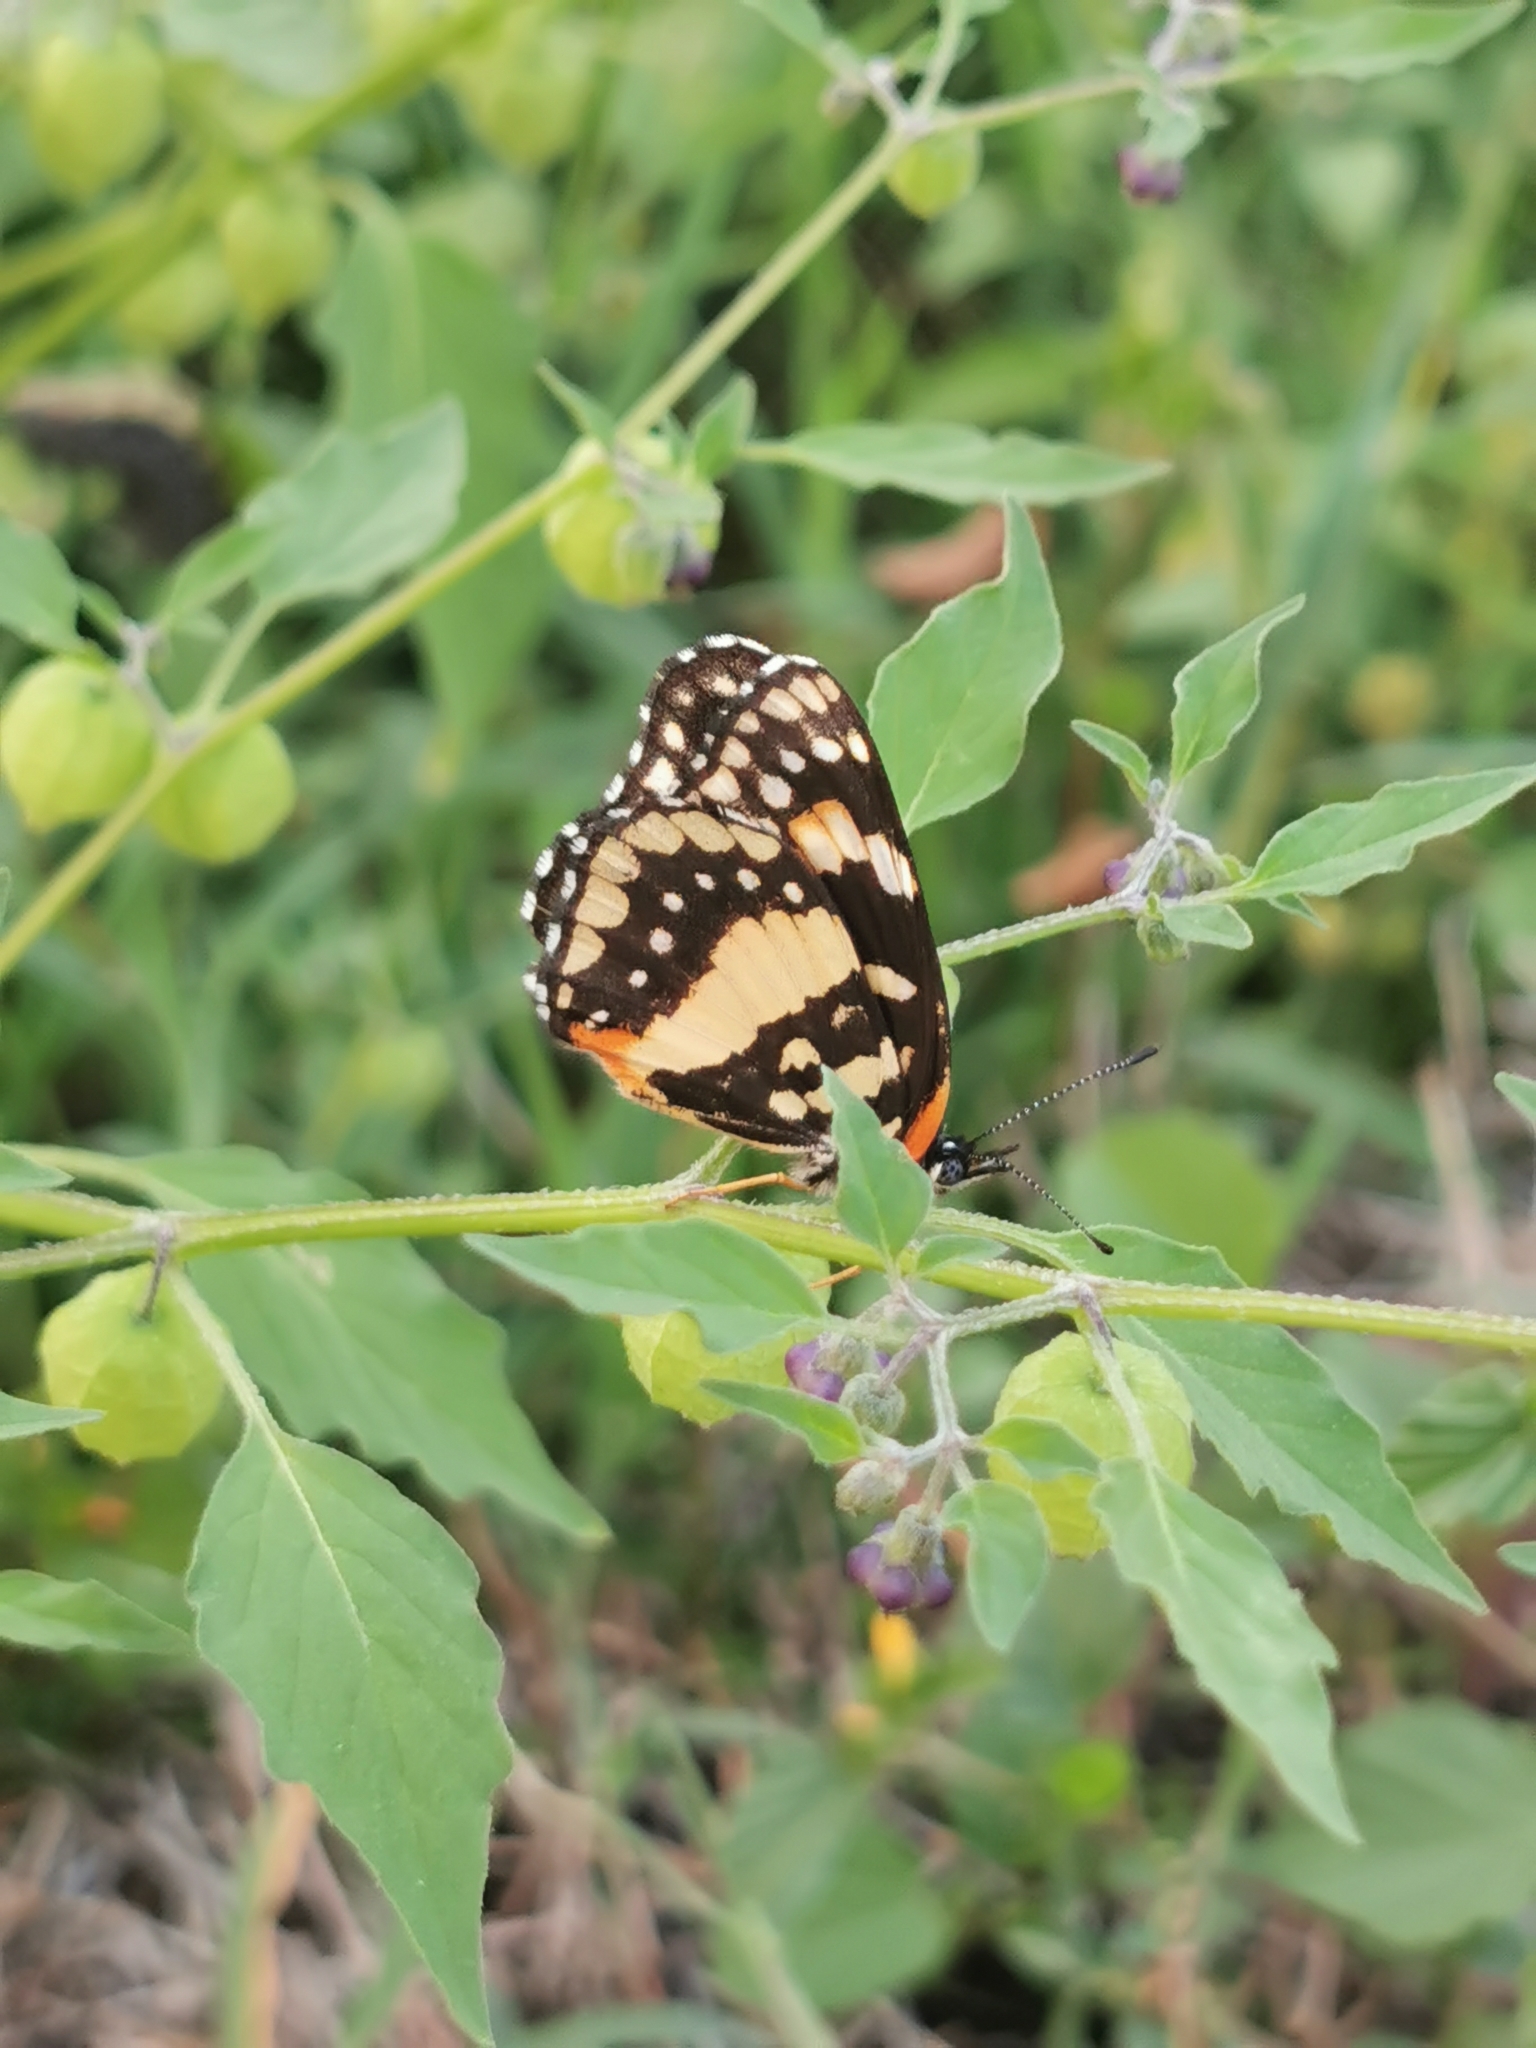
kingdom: Animalia
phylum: Arthropoda
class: Insecta
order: Lepidoptera
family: Nymphalidae
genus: Chlosyne
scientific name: Chlosyne lacinia
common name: Bordered patch
